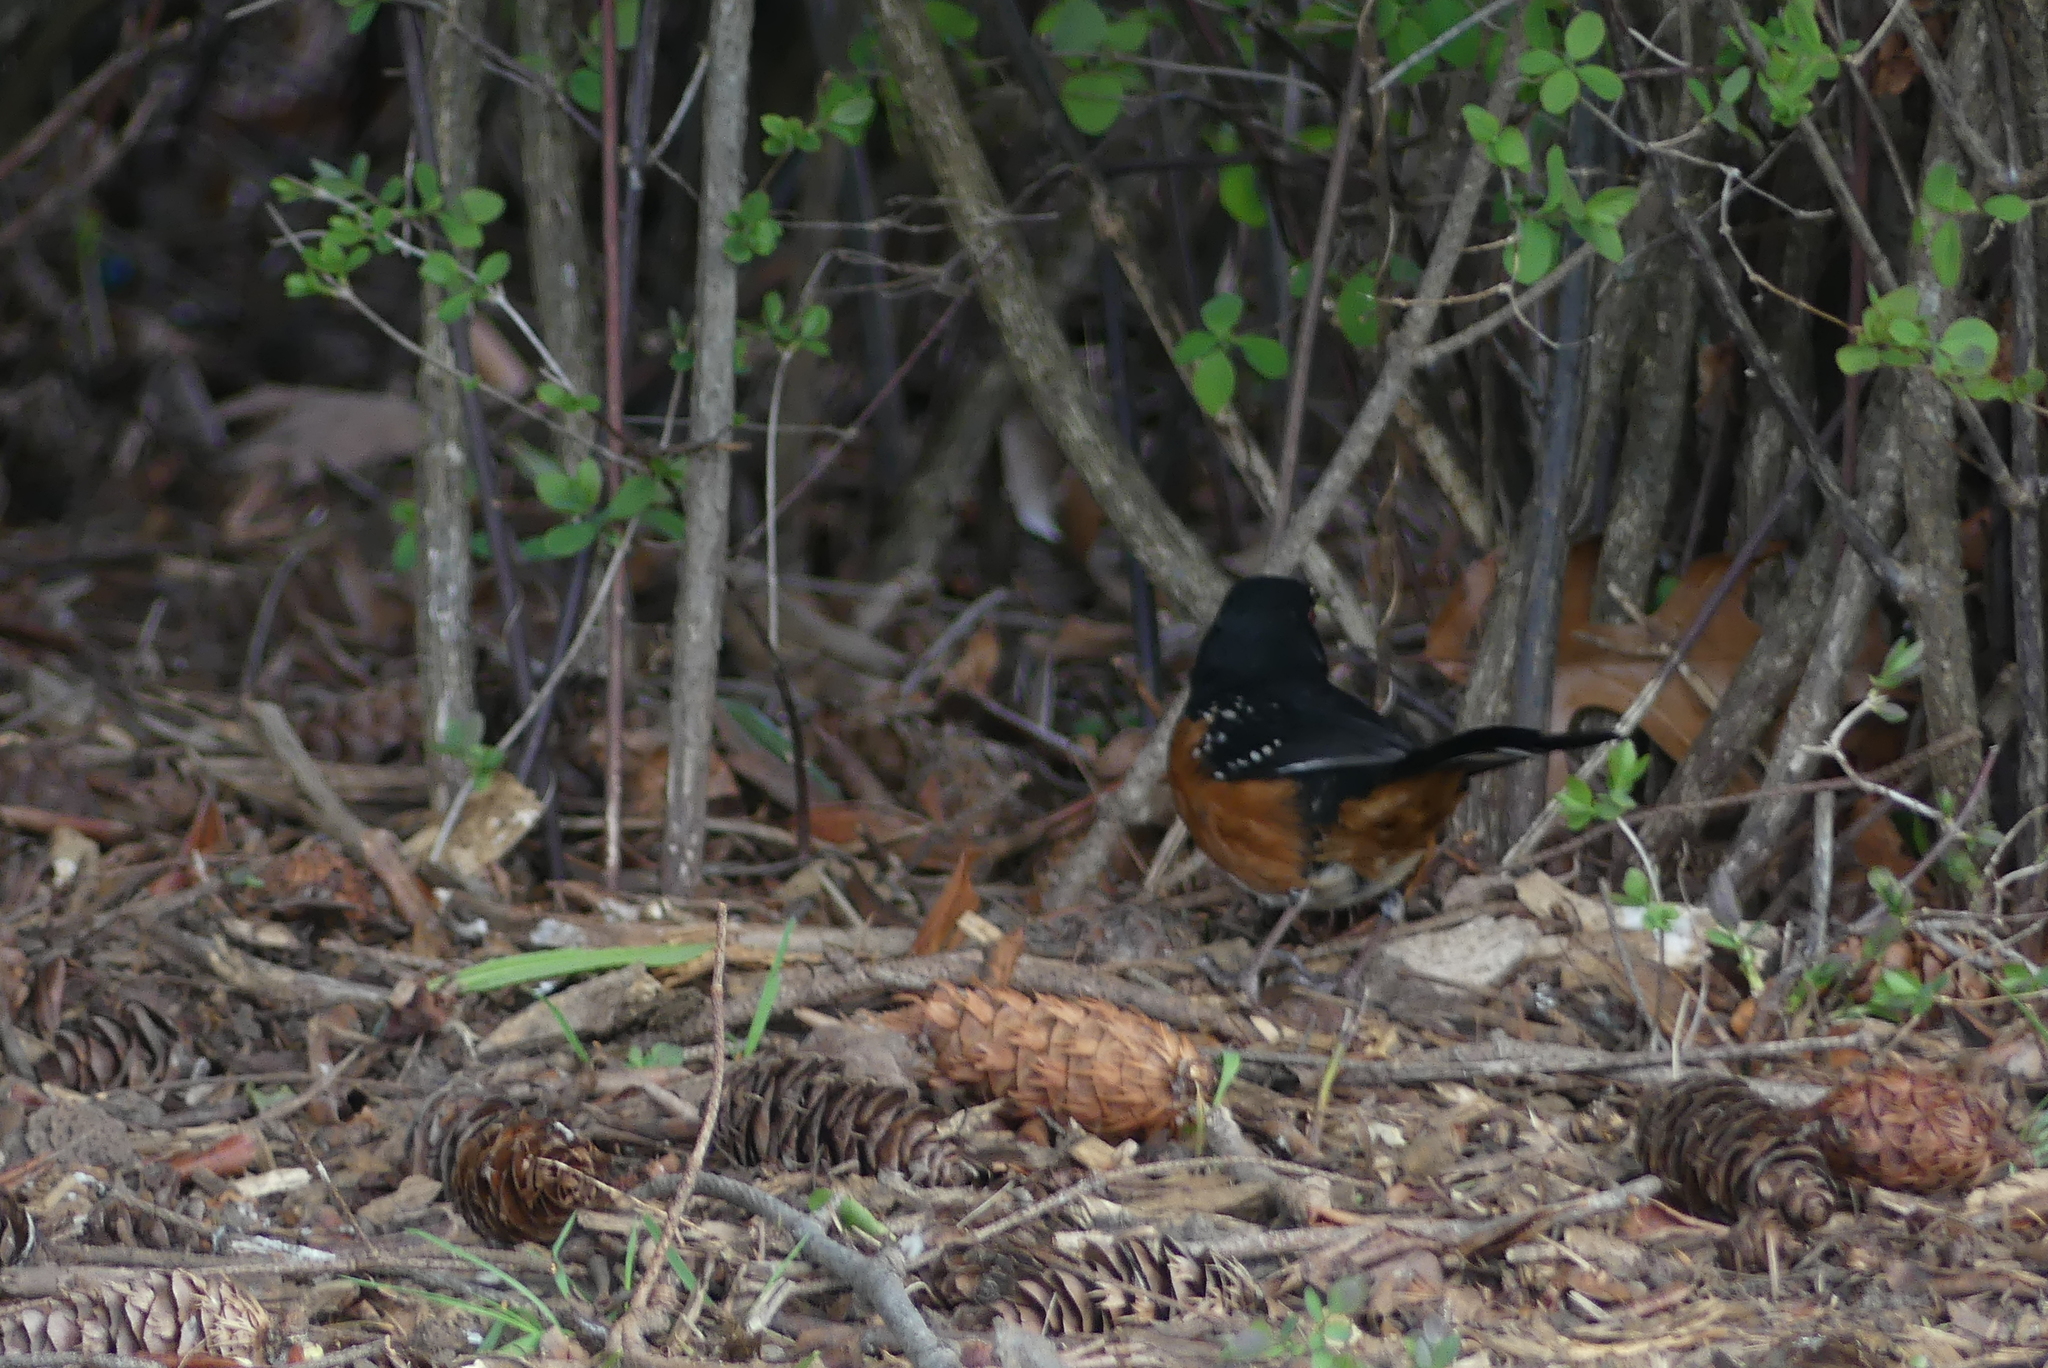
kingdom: Animalia
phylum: Chordata
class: Aves
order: Passeriformes
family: Passerellidae
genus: Pipilo
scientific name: Pipilo maculatus
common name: Spotted towhee
